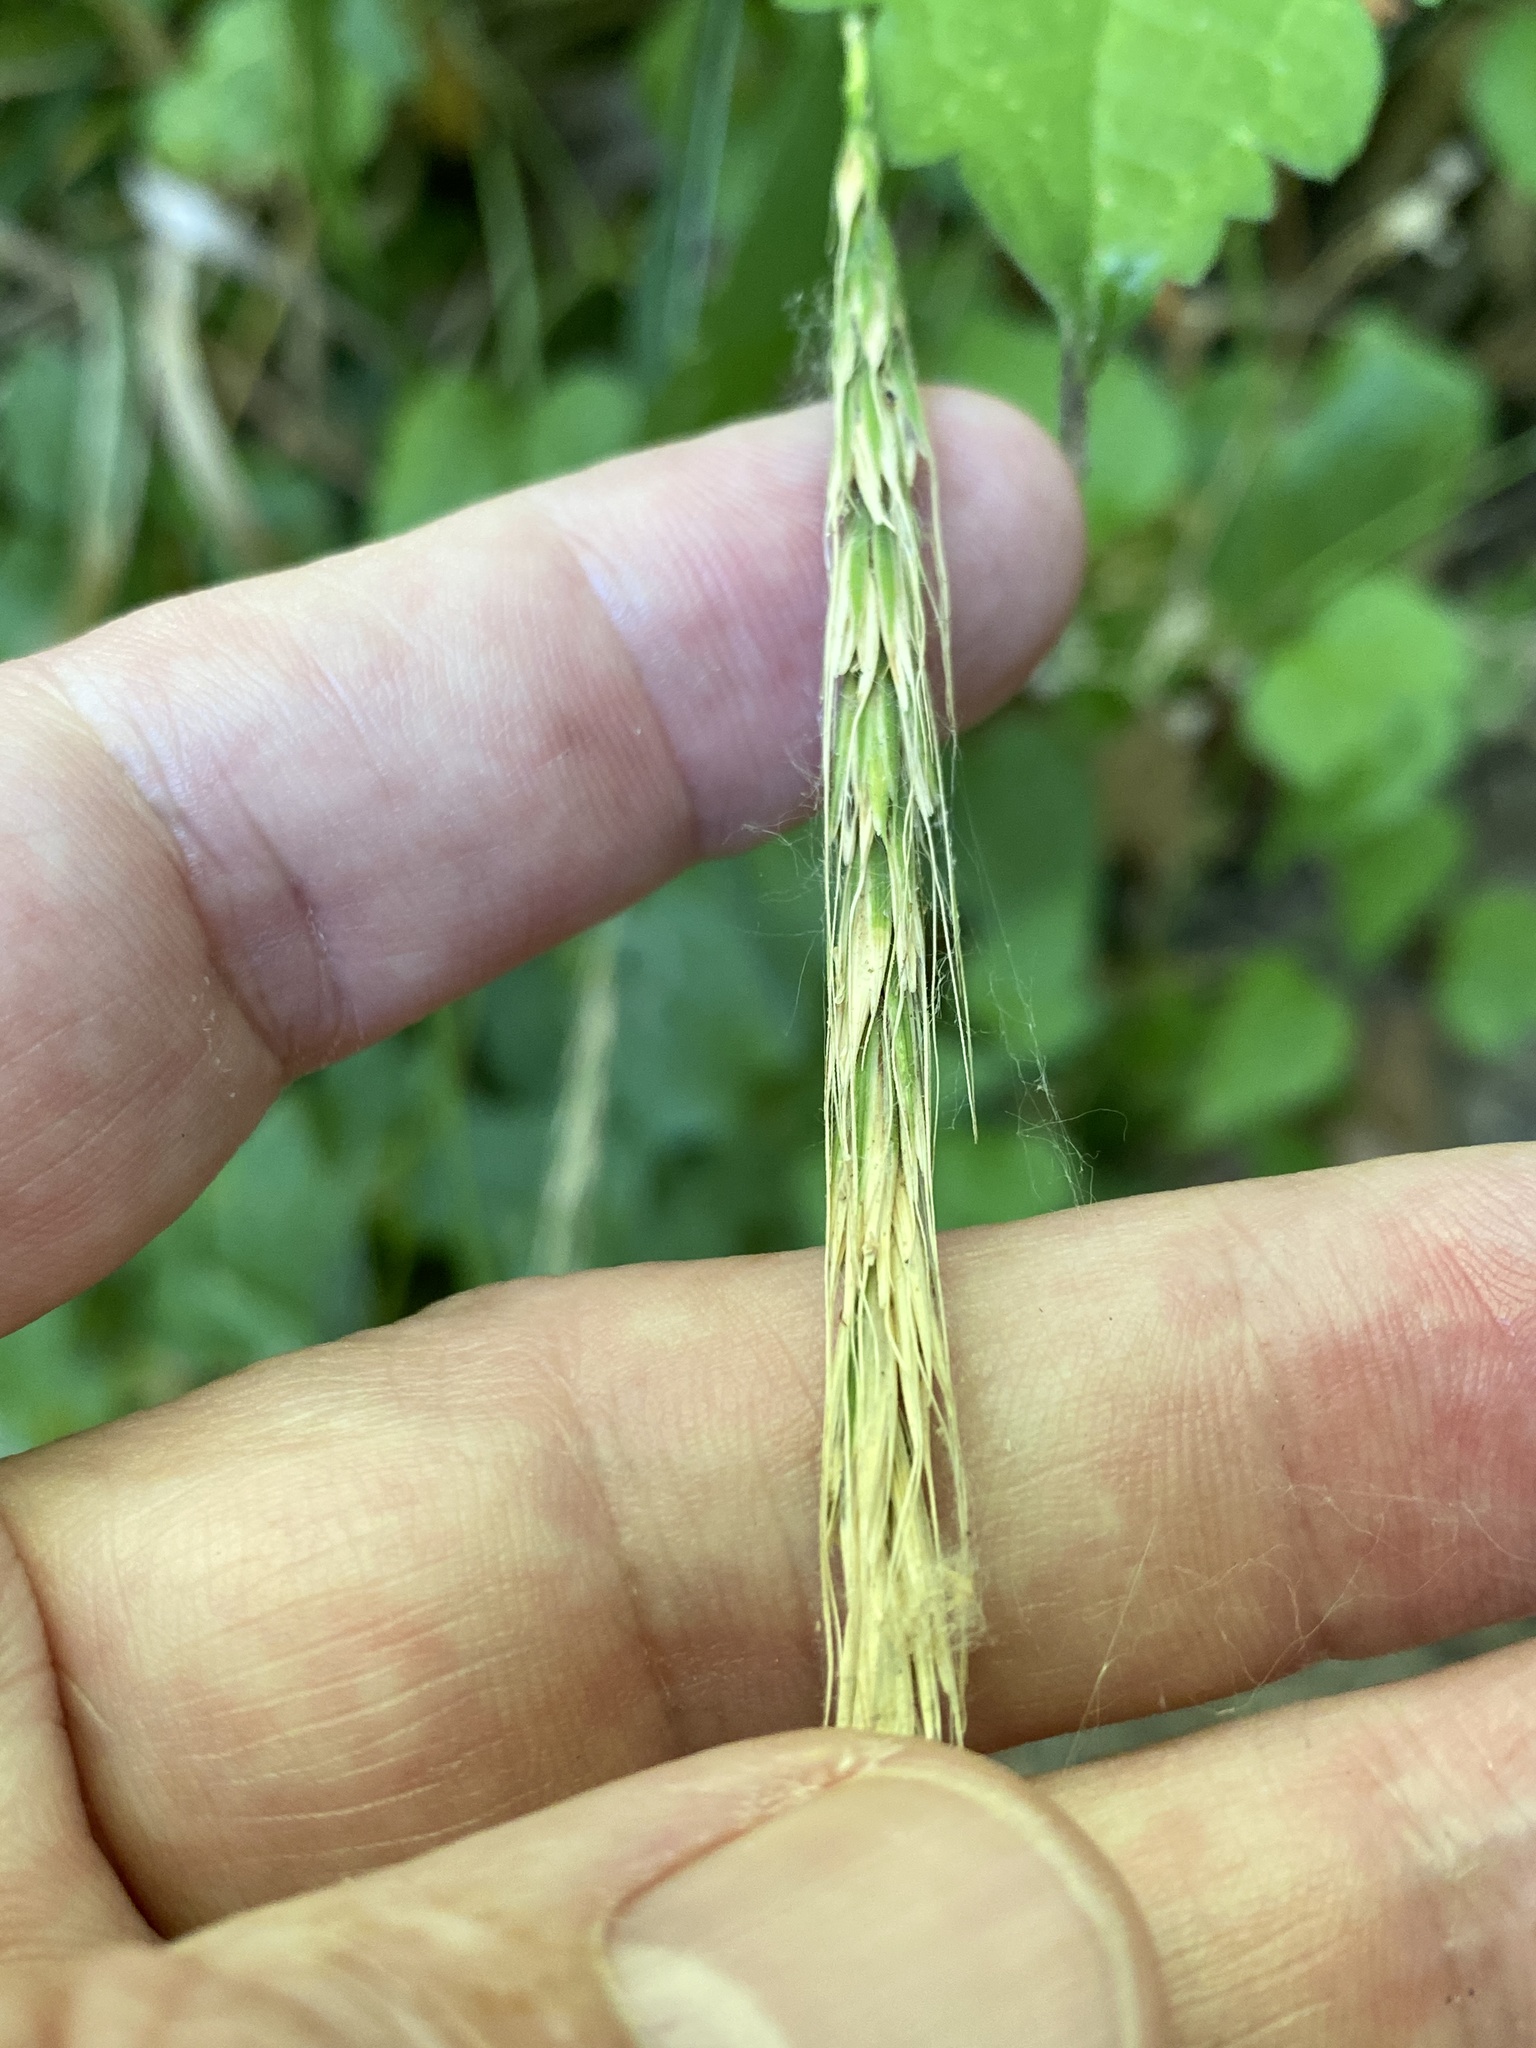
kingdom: Plantae
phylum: Tracheophyta
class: Liliopsida
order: Poales
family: Poaceae
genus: Elymus
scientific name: Elymus glaucus
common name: Blue wild rye
